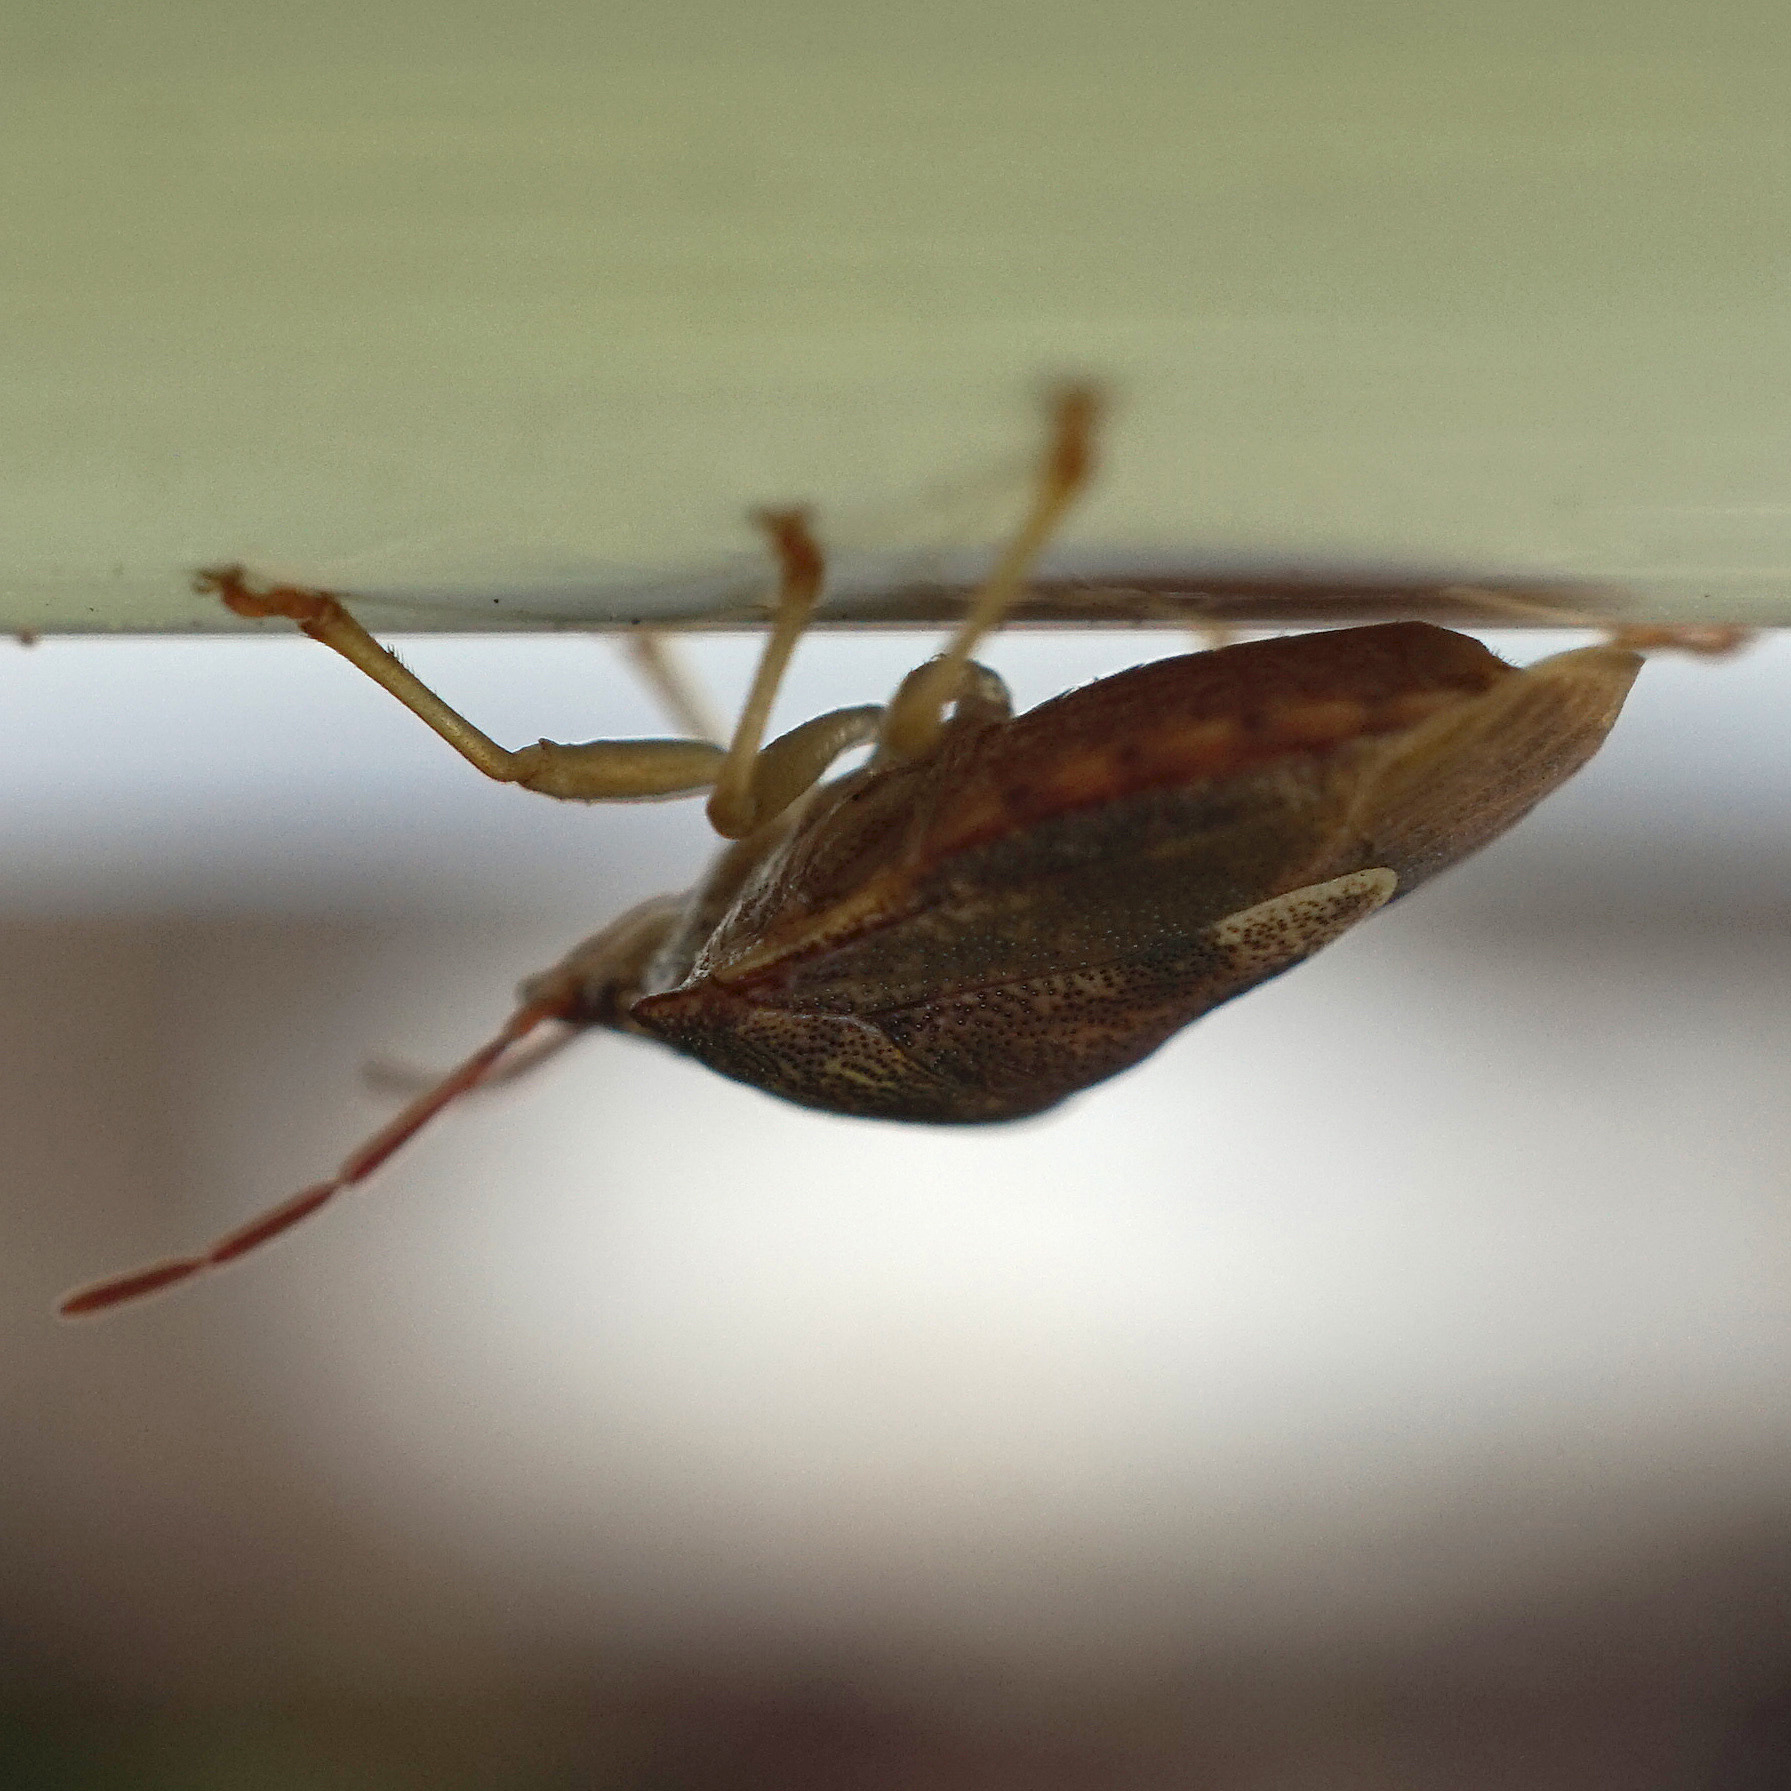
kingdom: Animalia
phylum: Arthropoda
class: Insecta
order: Hemiptera
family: Pentatomidae
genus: Dendrocoris
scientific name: Dendrocoris humeralis
